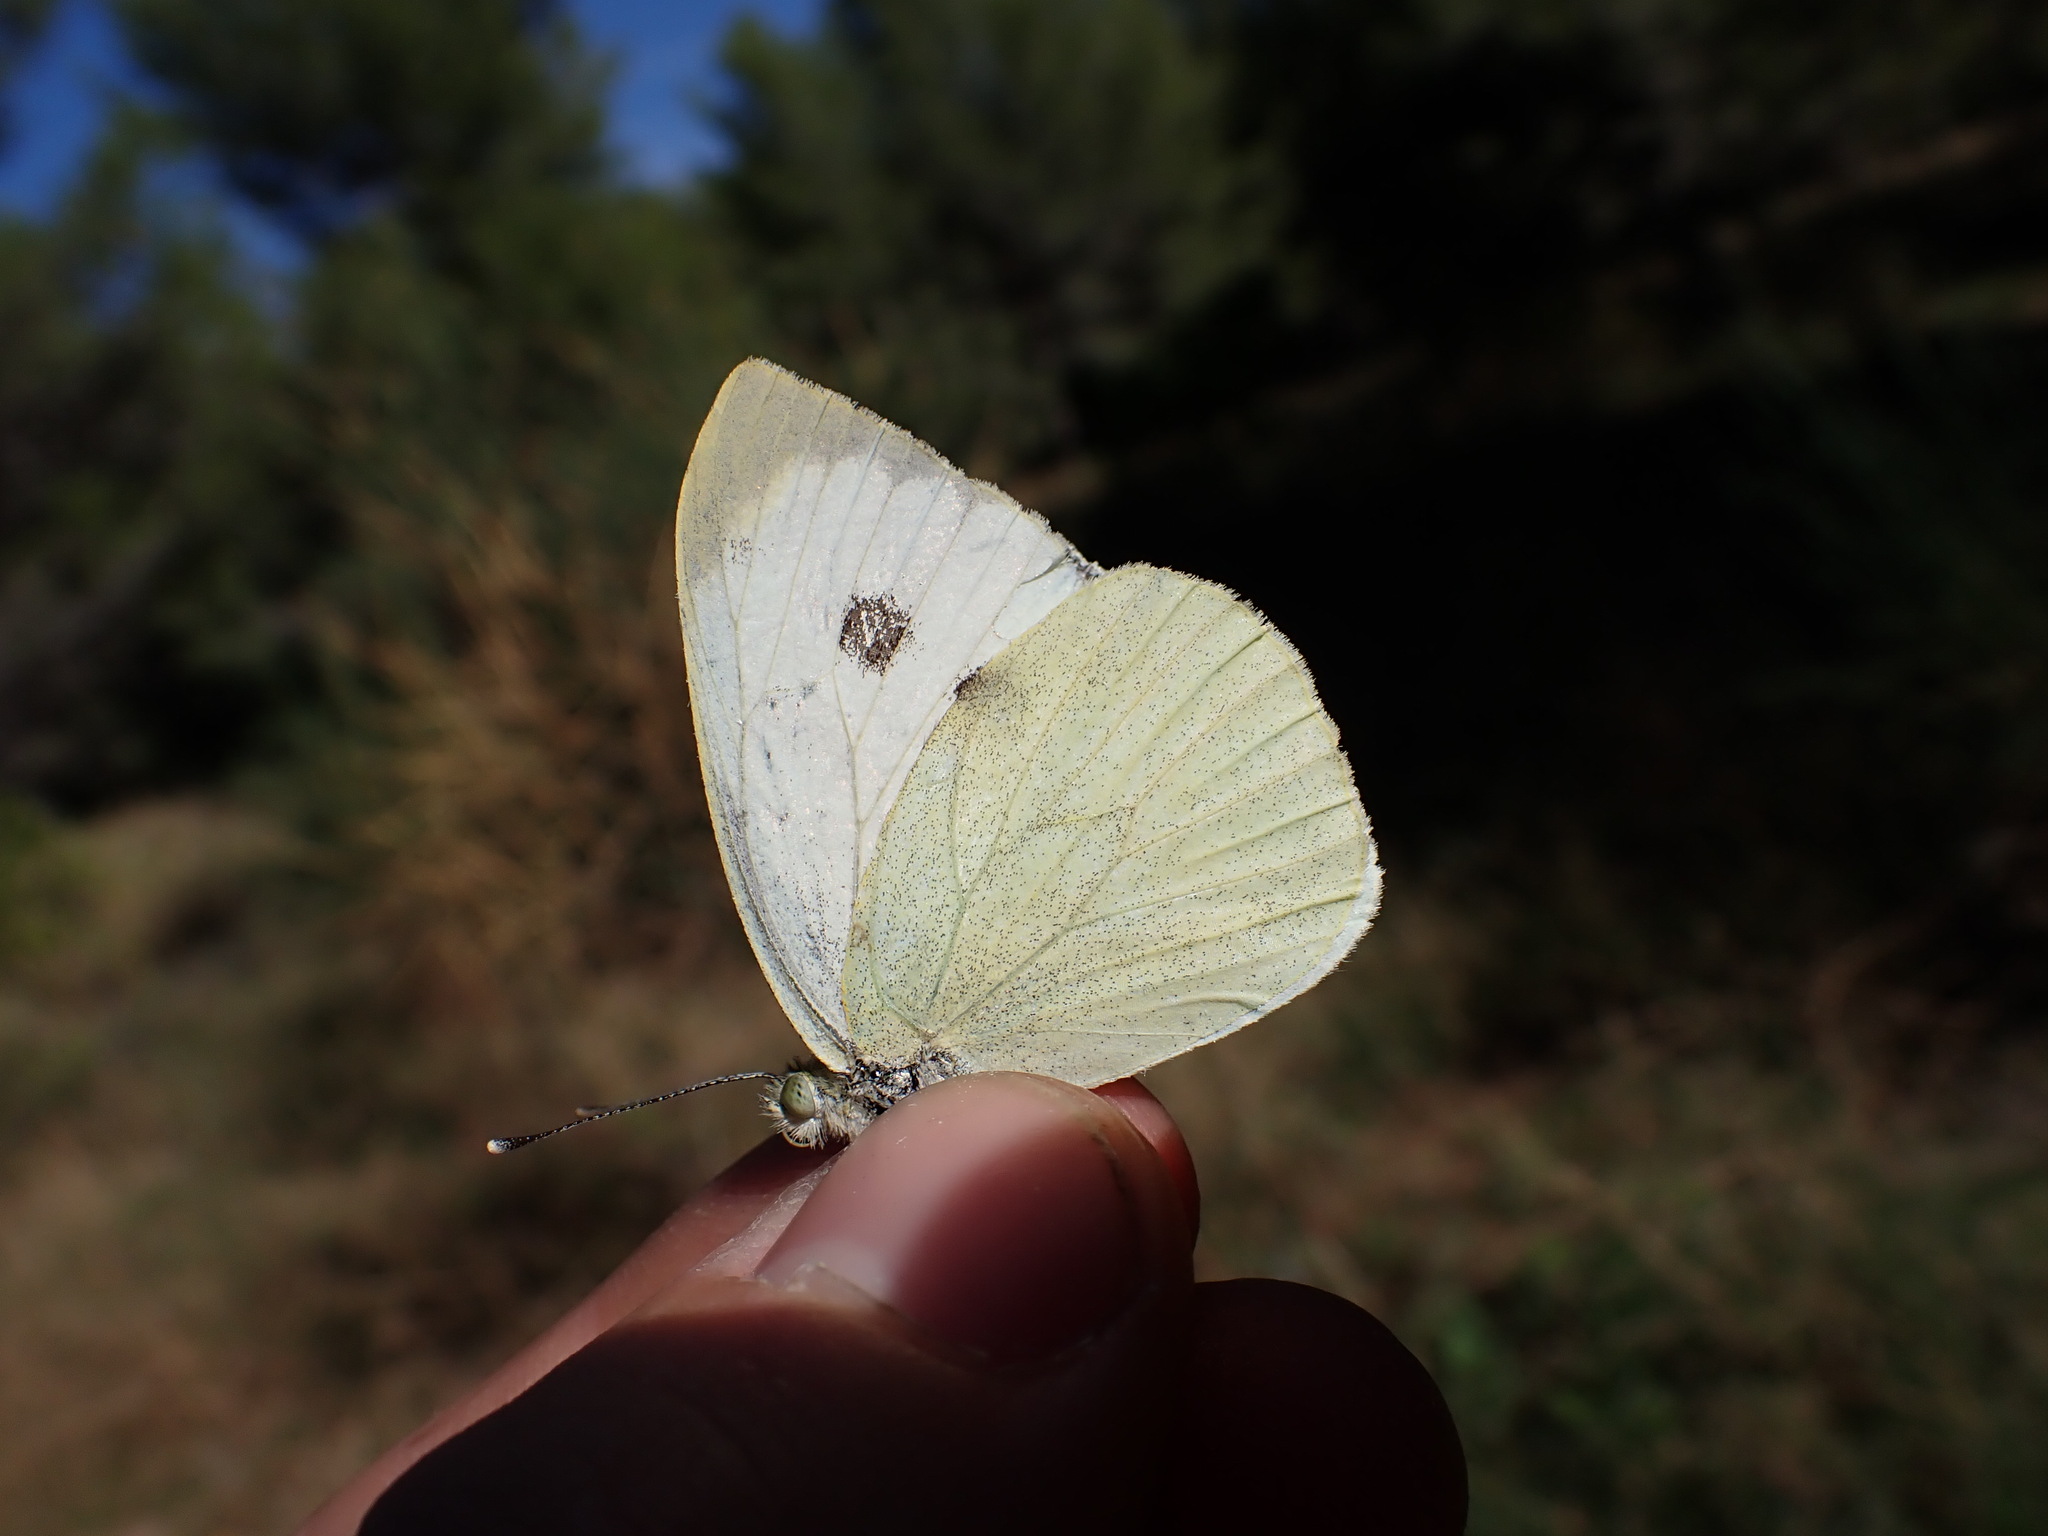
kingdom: Animalia
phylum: Arthropoda
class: Insecta
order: Lepidoptera
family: Pieridae
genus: Pieris
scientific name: Pieris brassicae
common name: Large white
